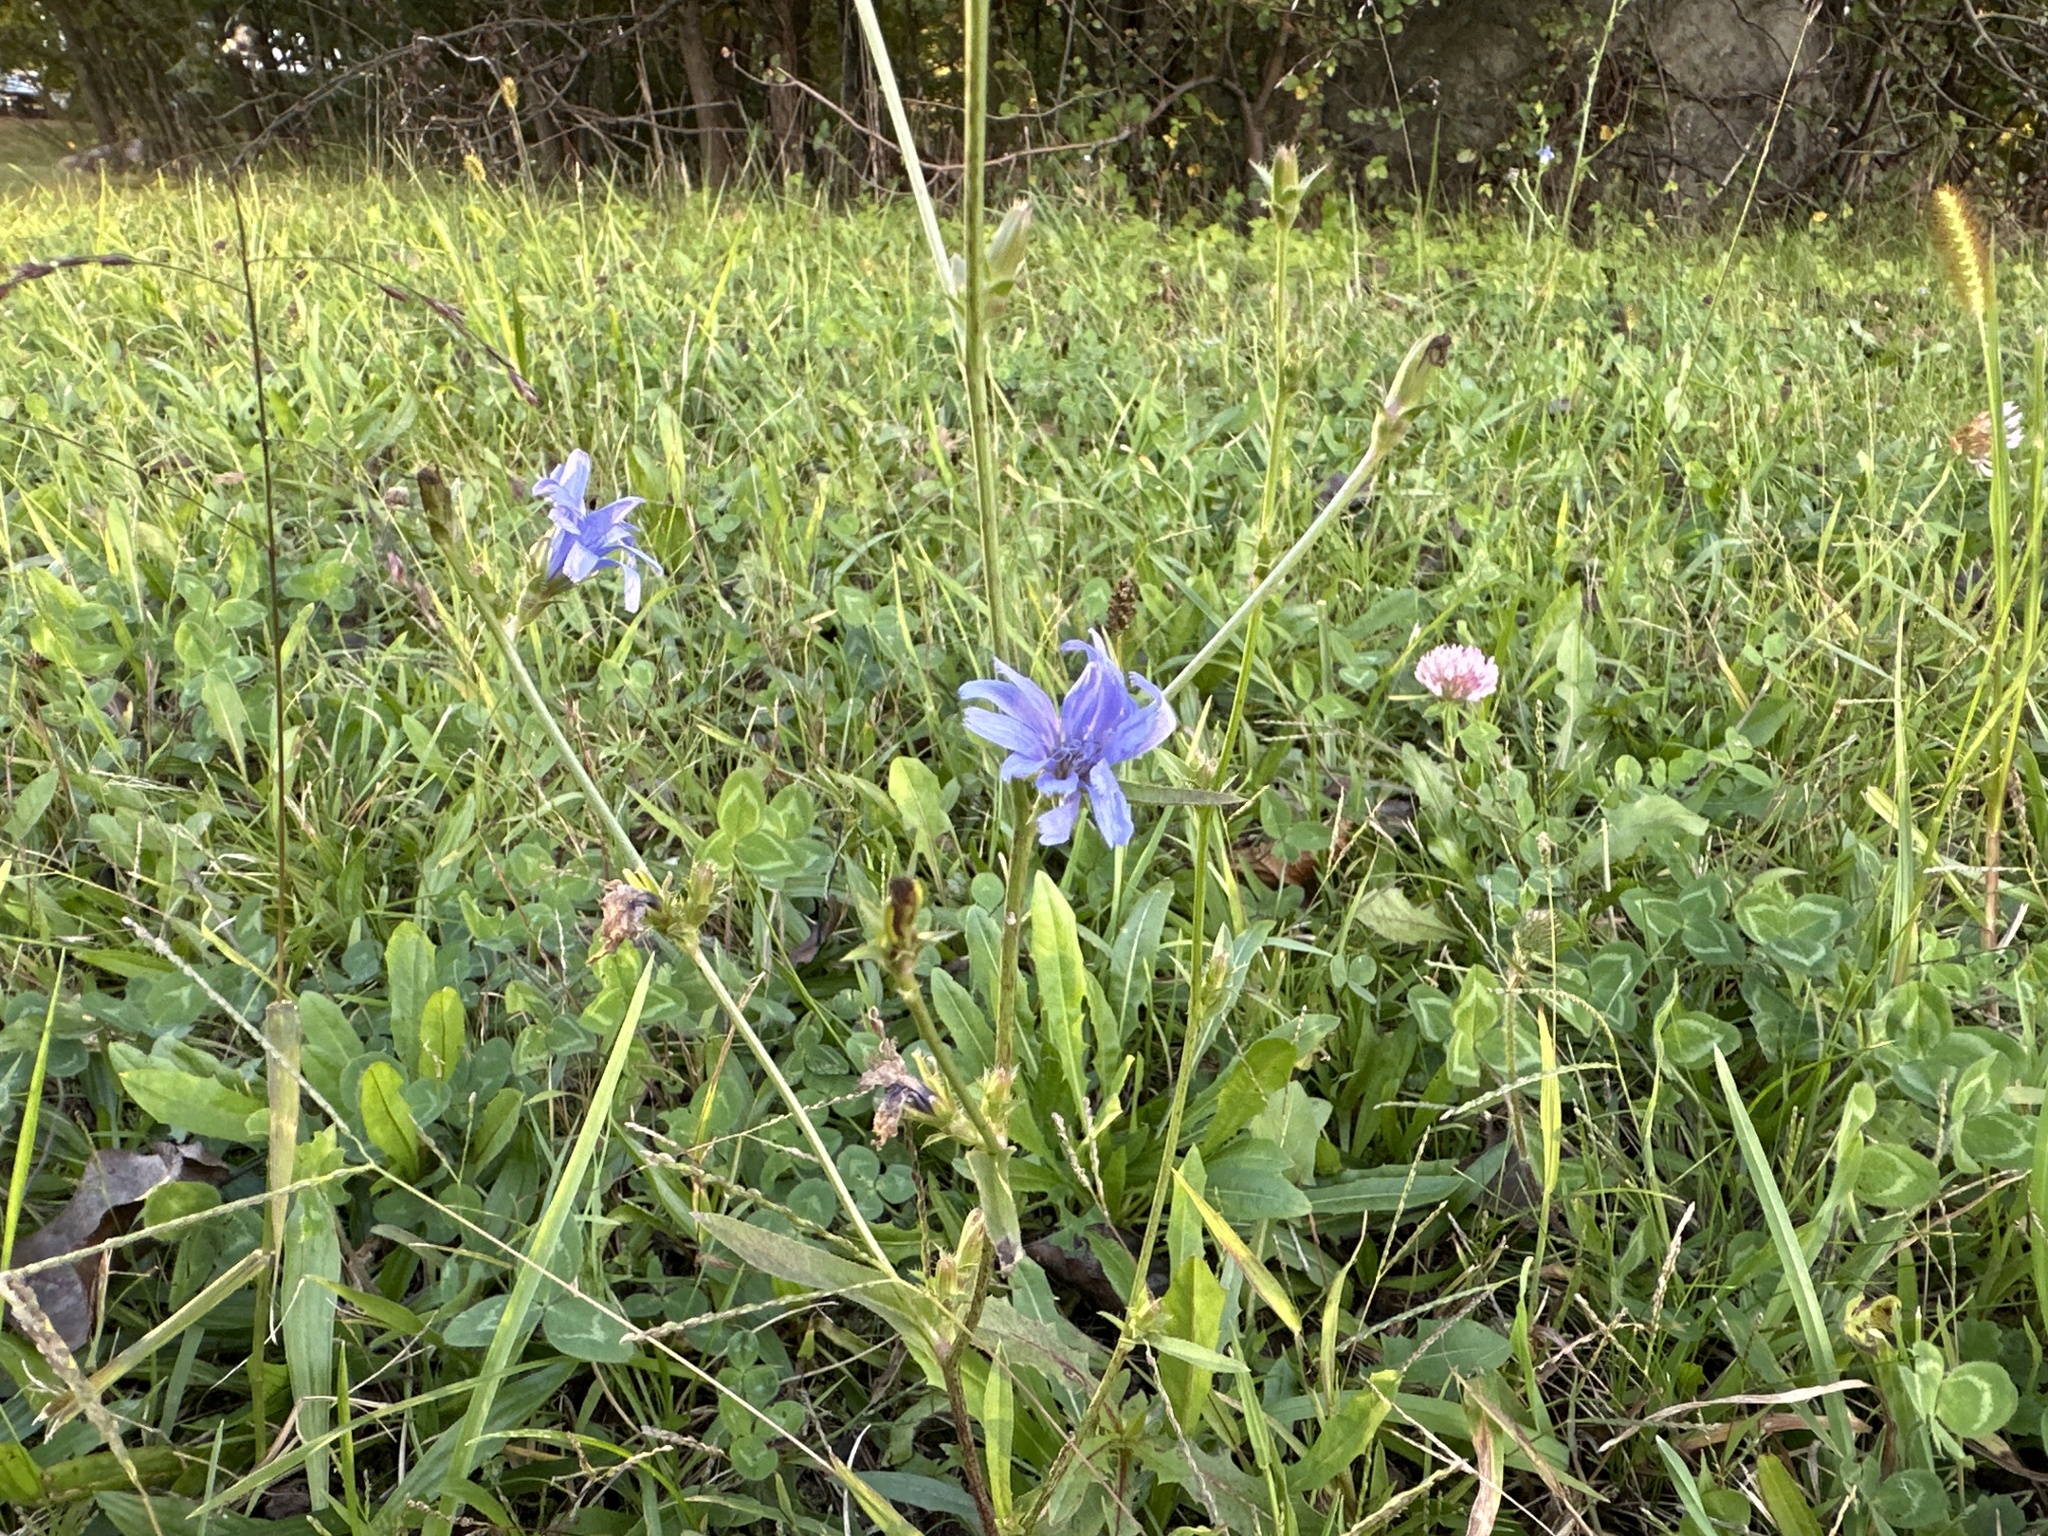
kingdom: Plantae
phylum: Tracheophyta
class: Magnoliopsida
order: Asterales
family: Asteraceae
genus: Cichorium
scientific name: Cichorium intybus
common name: Chicory
